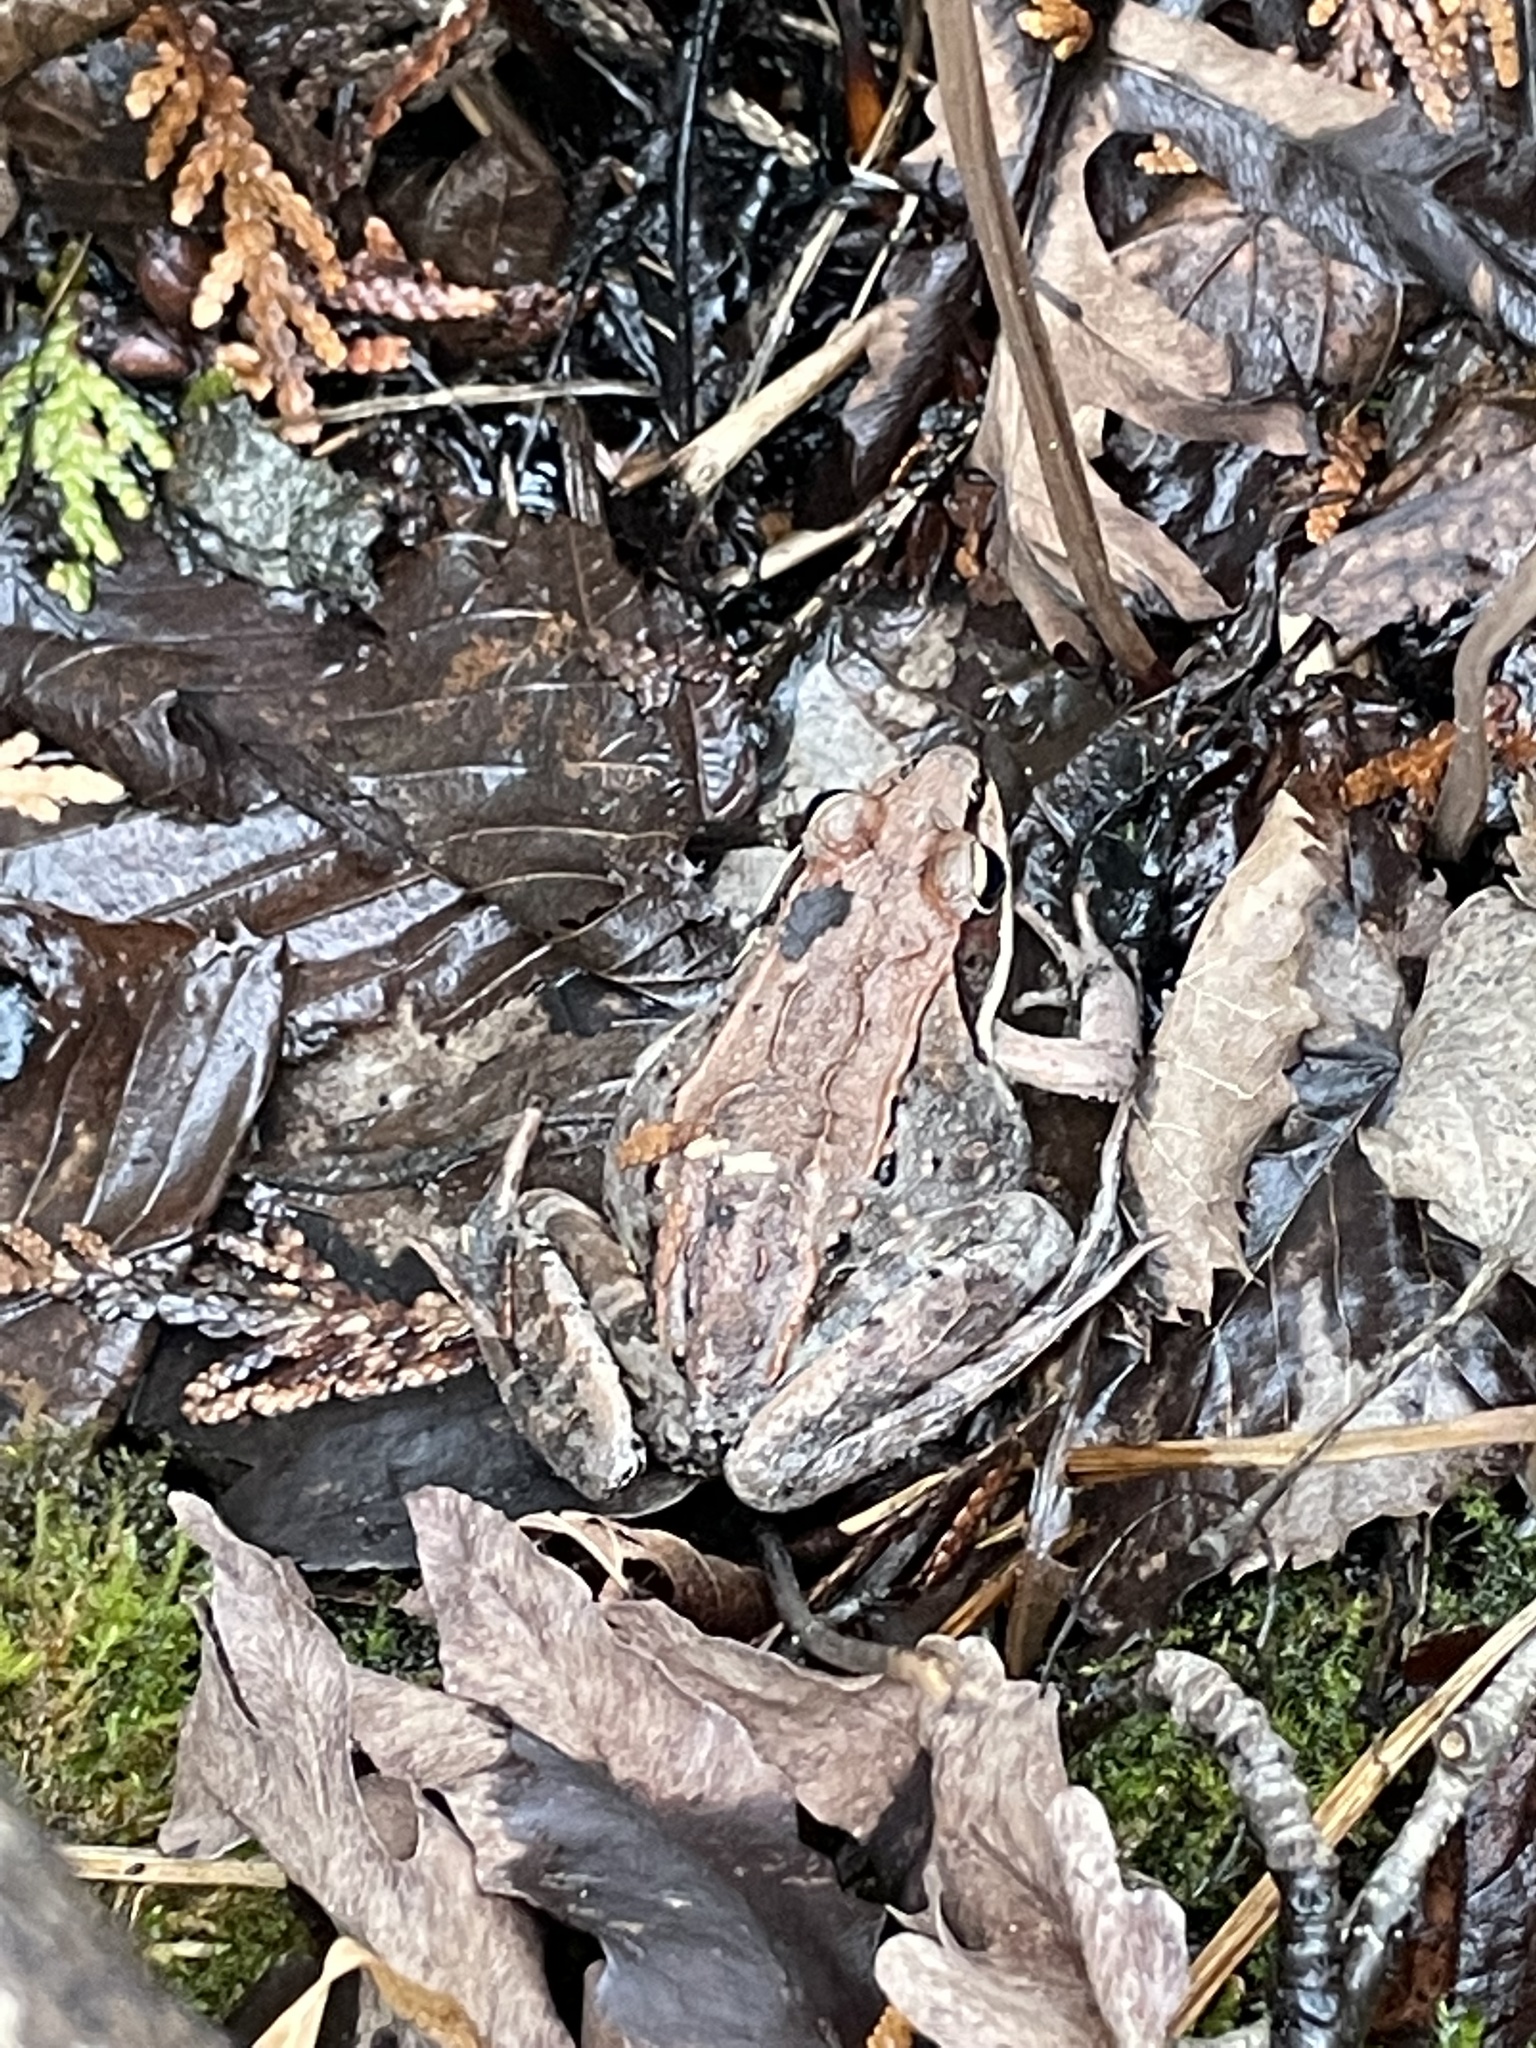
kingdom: Animalia
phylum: Chordata
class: Amphibia
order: Anura
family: Ranidae
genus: Lithobates
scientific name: Lithobates sylvaticus
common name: Wood frog
